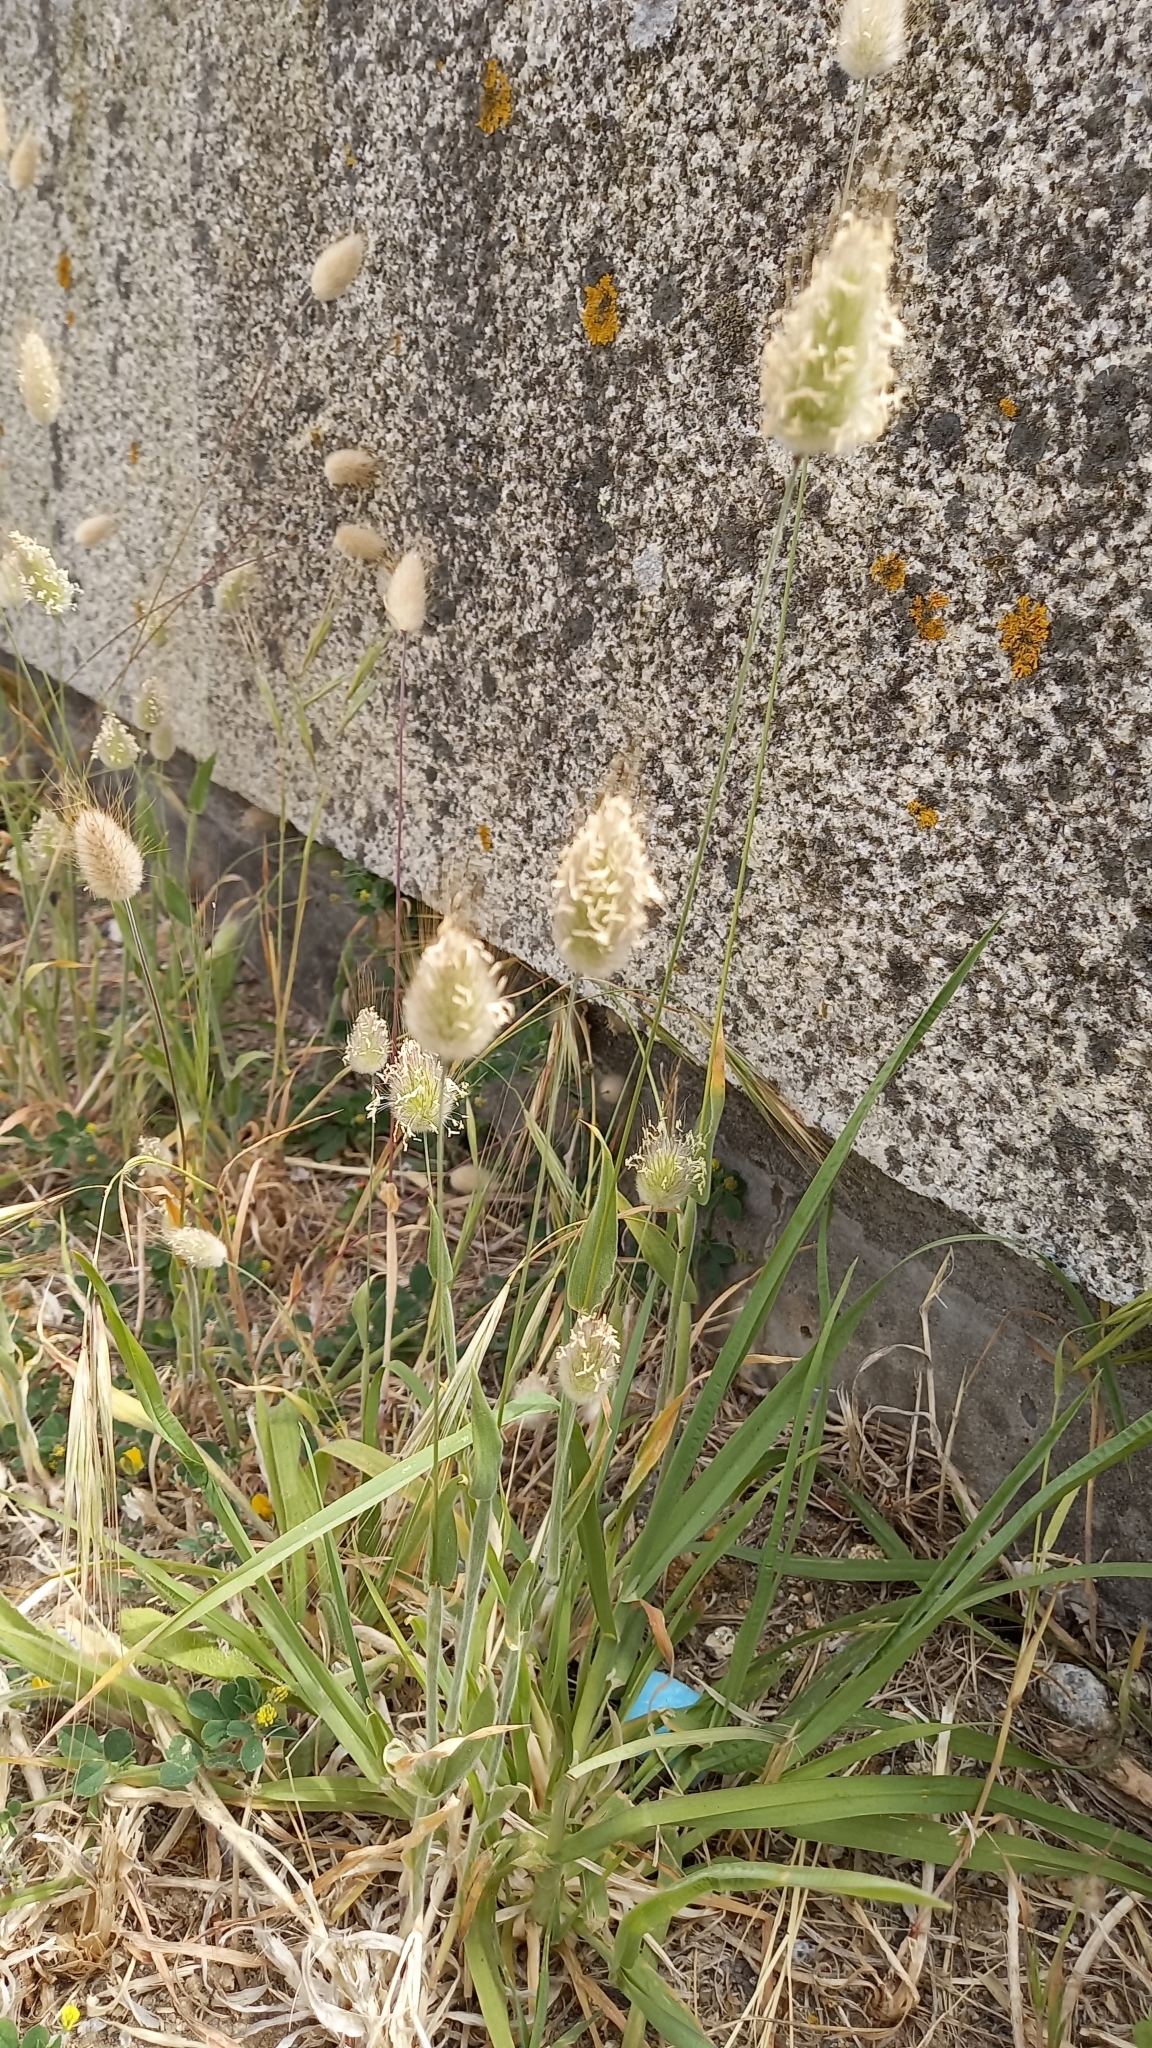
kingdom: Plantae
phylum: Tracheophyta
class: Liliopsida
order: Poales
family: Poaceae
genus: Lagurus
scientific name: Lagurus ovatus
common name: Hare's-tail
